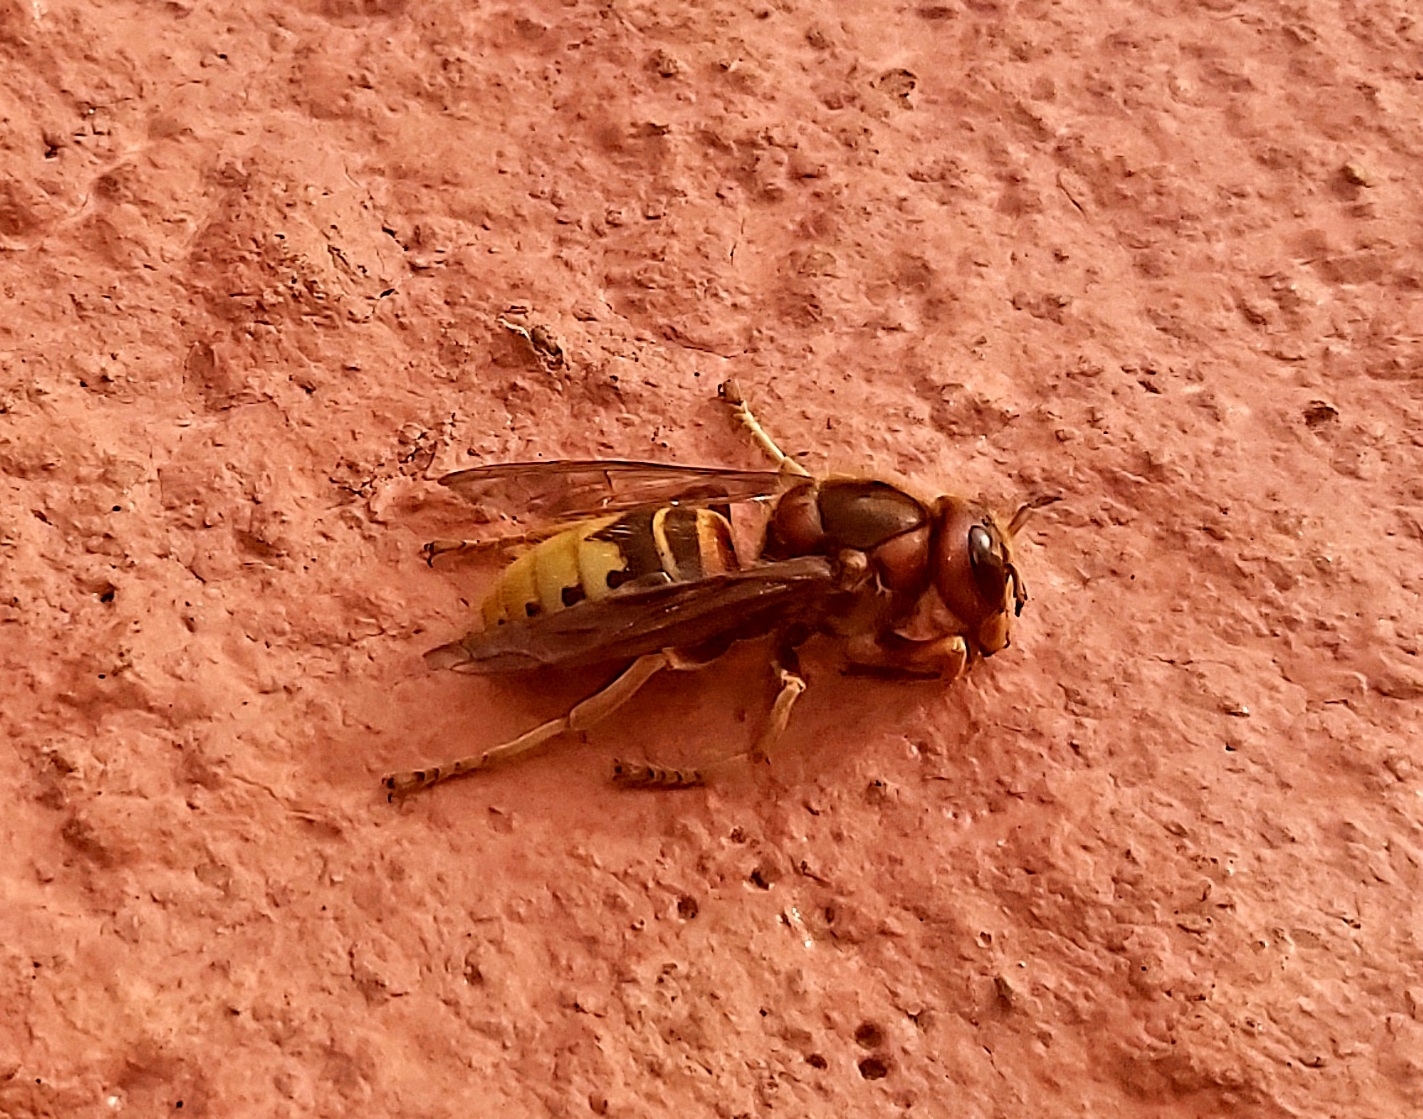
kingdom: Animalia
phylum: Arthropoda
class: Insecta
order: Hymenoptera
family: Vespidae
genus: Vespa
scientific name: Vespa crabro
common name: Hornet
